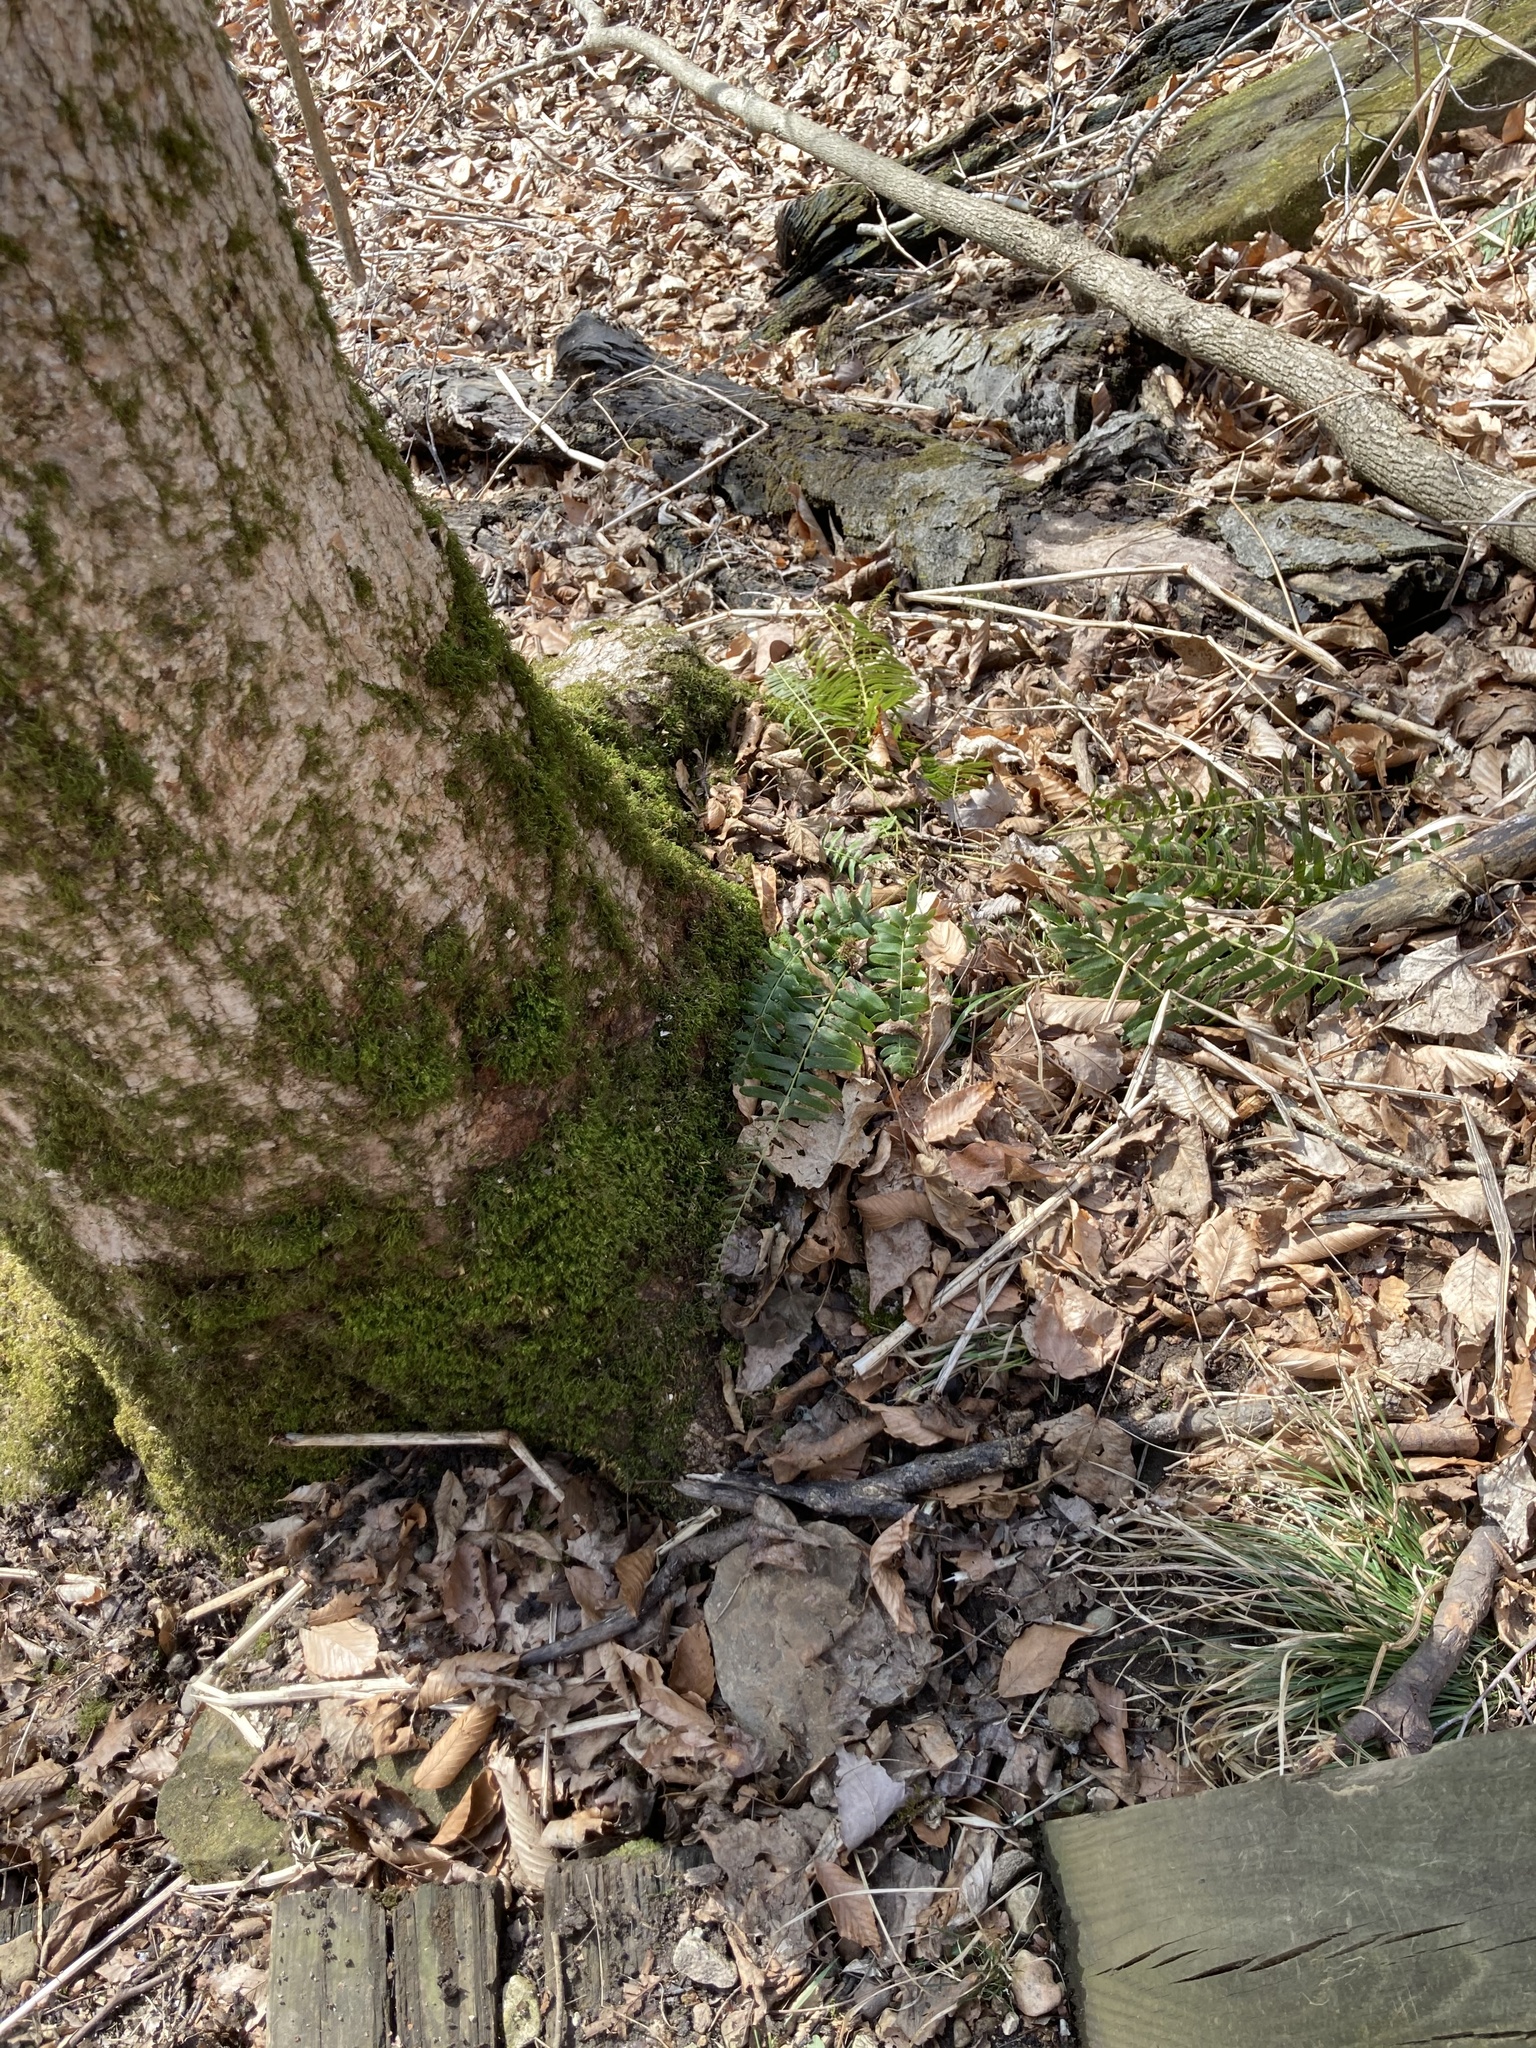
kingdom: Plantae
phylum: Tracheophyta
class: Polypodiopsida
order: Polypodiales
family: Dryopteridaceae
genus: Polystichum
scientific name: Polystichum acrostichoides
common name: Christmas fern
